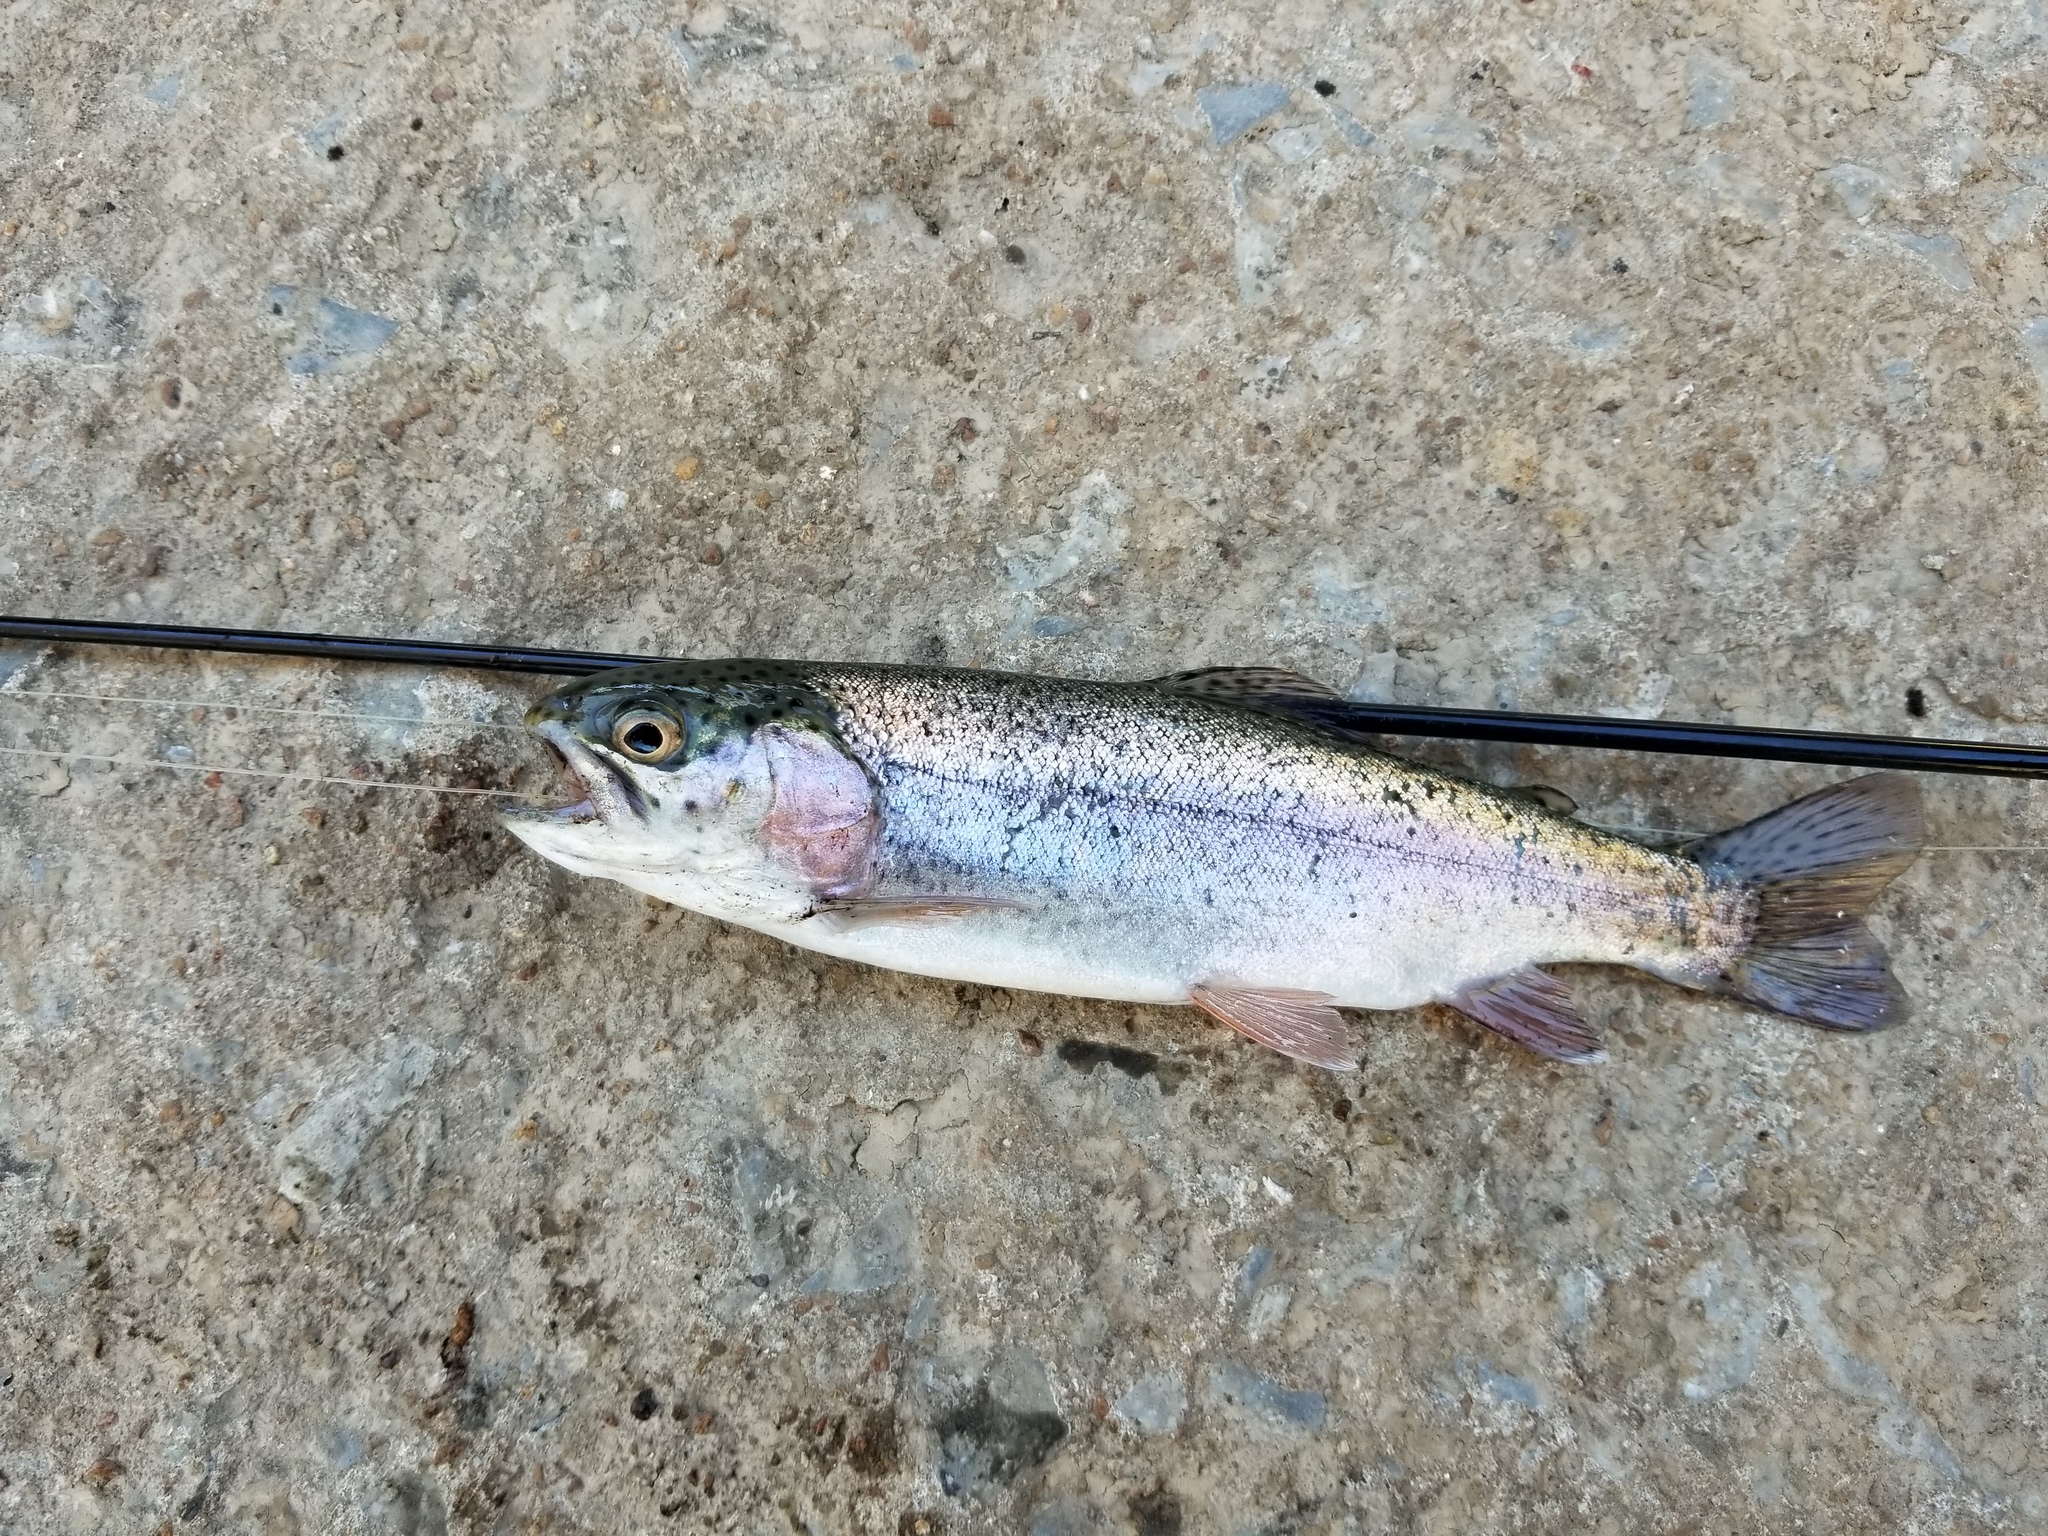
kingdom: Animalia
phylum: Chordata
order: Salmoniformes
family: Salmonidae
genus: Oncorhynchus
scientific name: Oncorhynchus mykiss
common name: Rainbow trout
